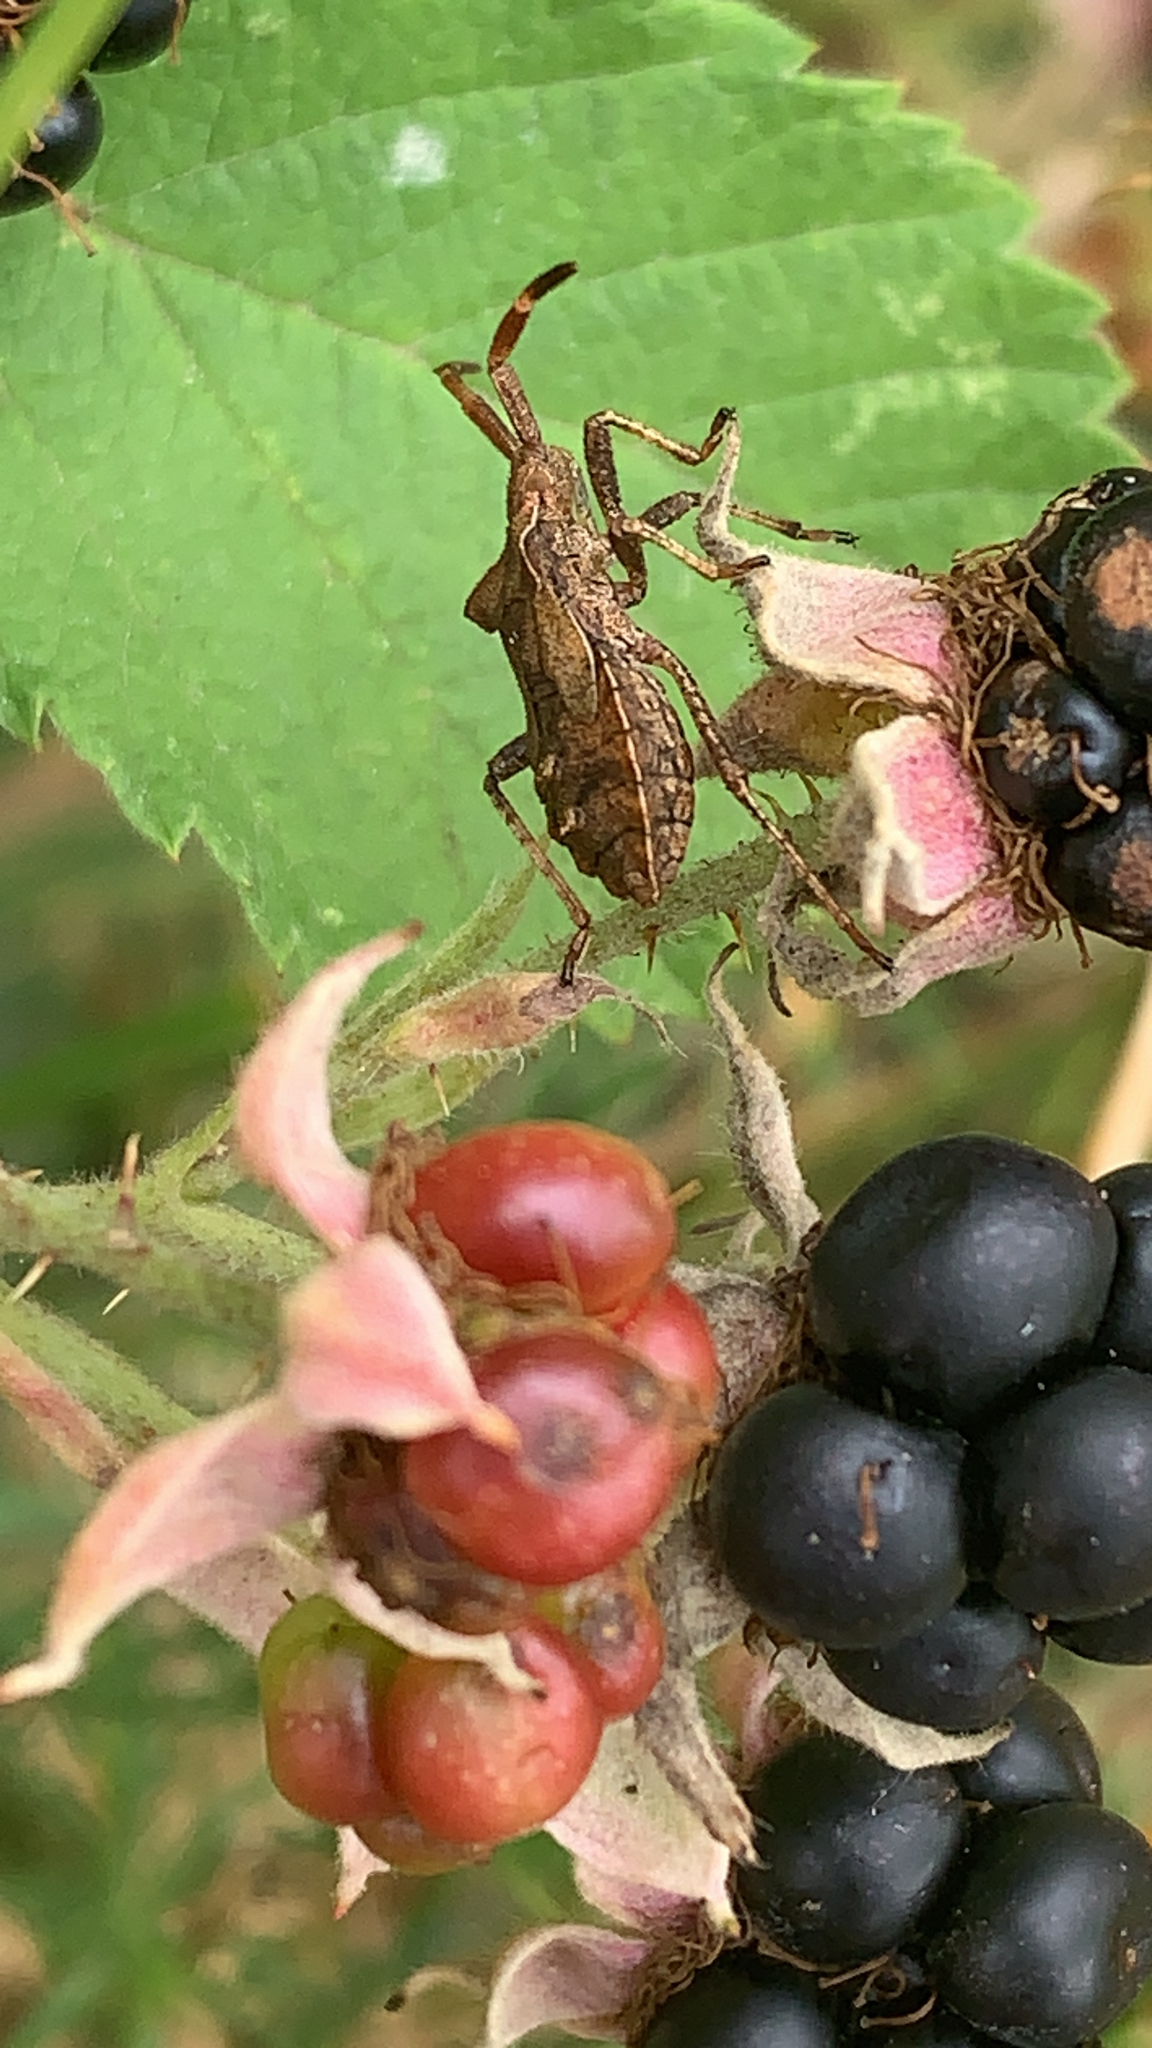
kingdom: Animalia
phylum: Arthropoda
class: Insecta
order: Hemiptera
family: Coreidae
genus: Coreus
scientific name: Coreus marginatus
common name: Dock bug
